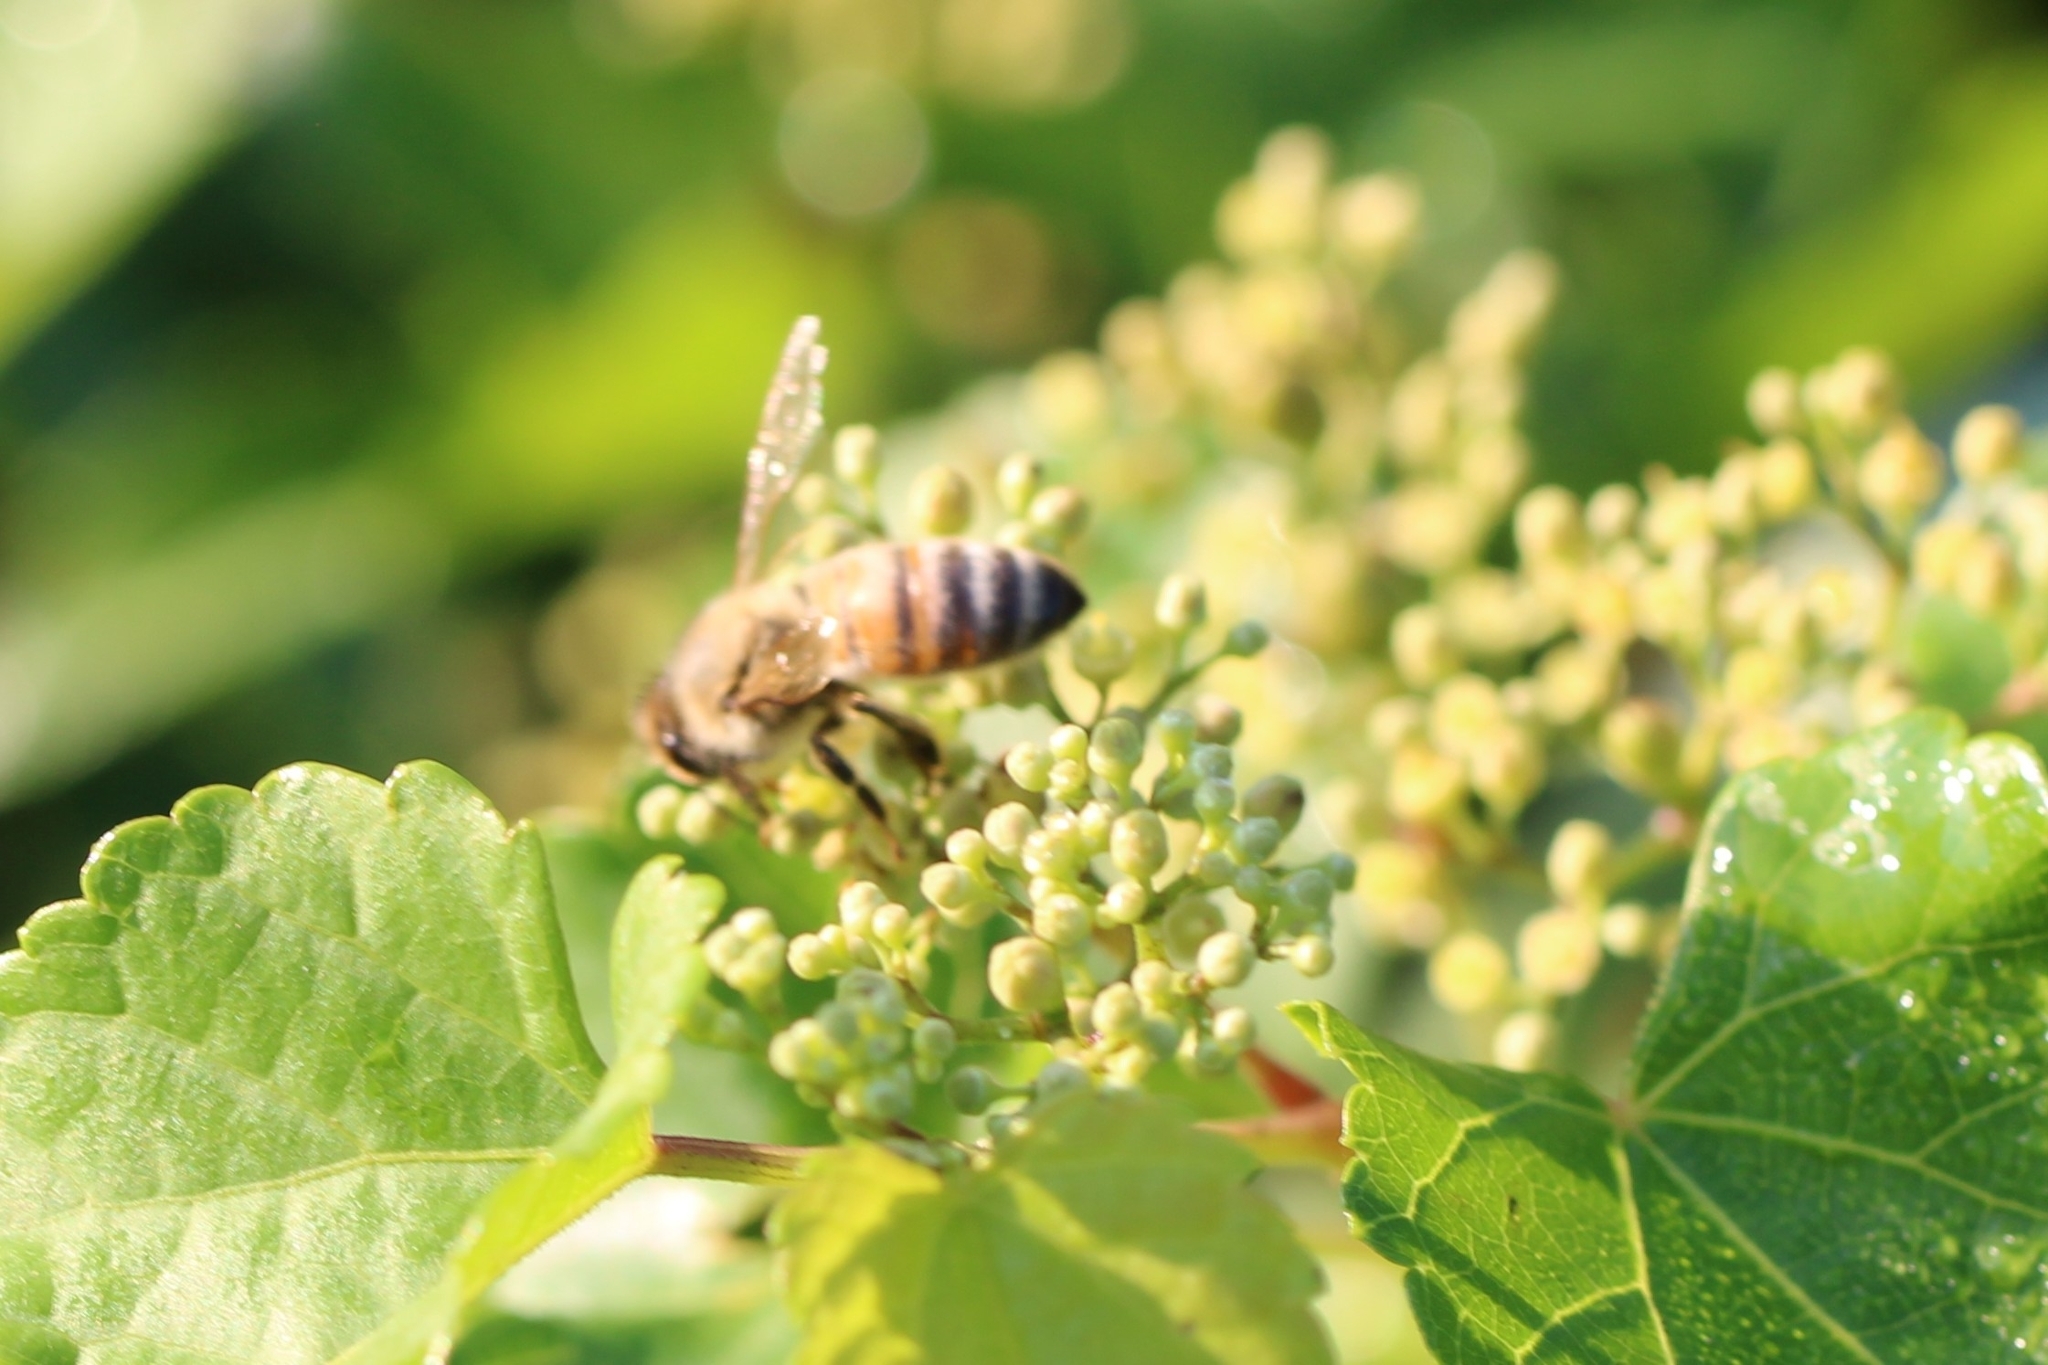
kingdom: Animalia
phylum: Arthropoda
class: Insecta
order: Hymenoptera
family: Apidae
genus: Apis
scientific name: Apis mellifera
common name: Honey bee
